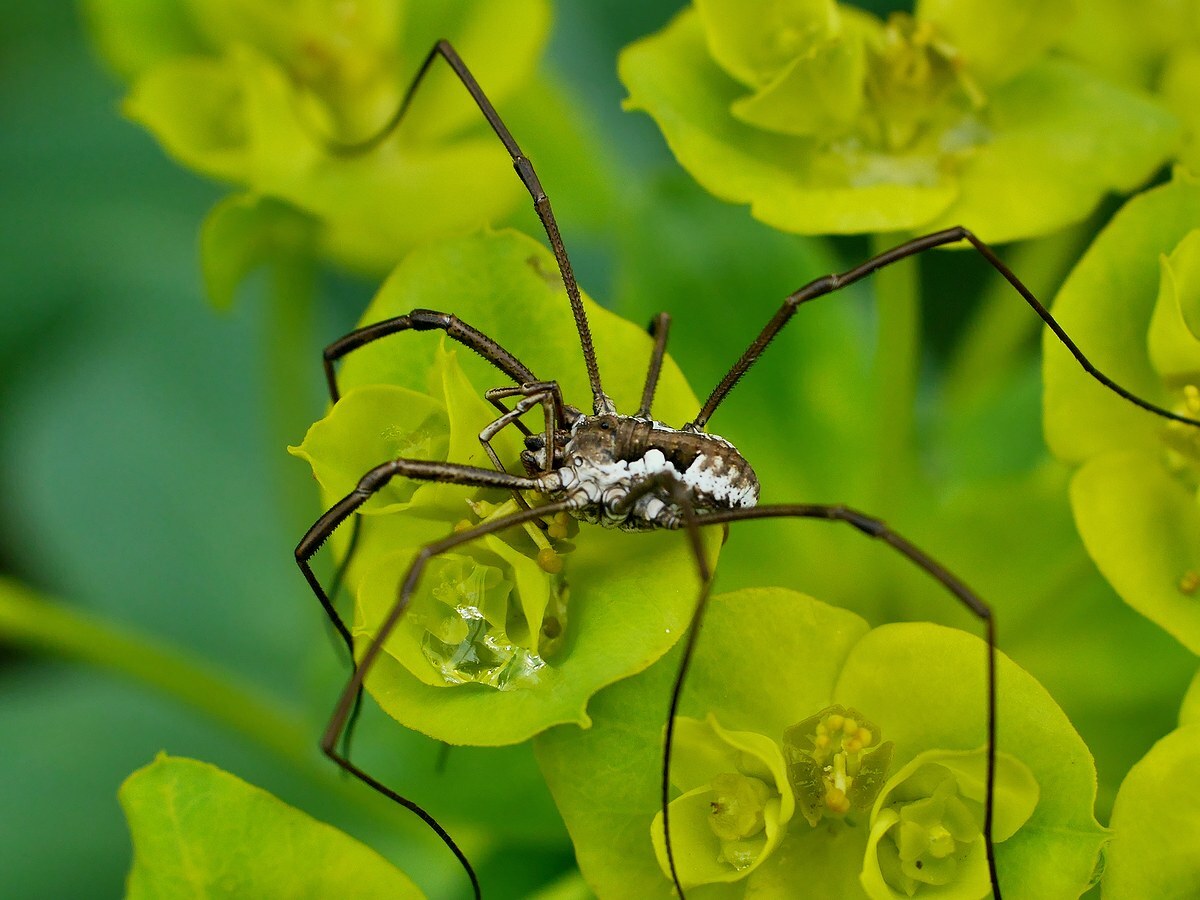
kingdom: Animalia
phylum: Arthropoda
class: Arachnida
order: Opiliones
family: Phalangiidae
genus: Phalangium
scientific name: Phalangium gorbunovi
